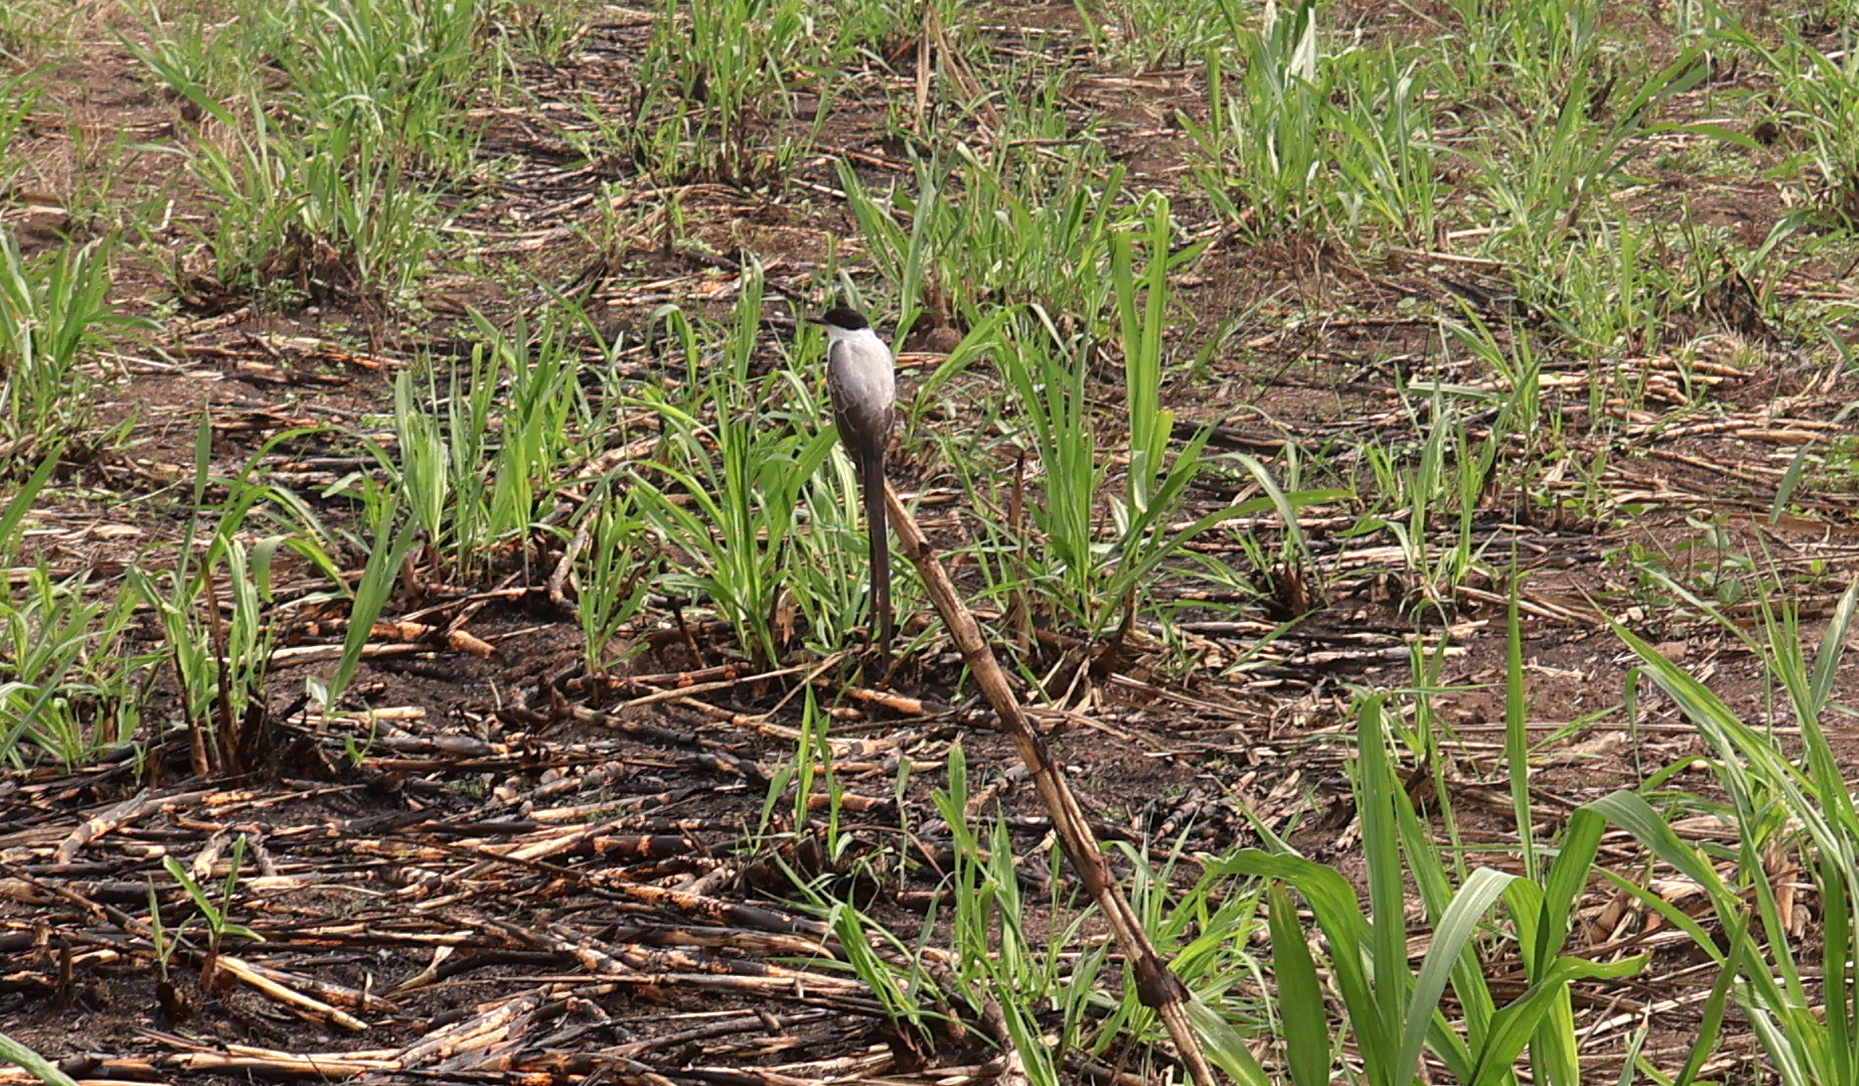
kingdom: Animalia
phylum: Chordata
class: Aves
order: Passeriformes
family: Tyrannidae
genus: Tyrannus
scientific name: Tyrannus savana
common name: Fork-tailed flycatcher
